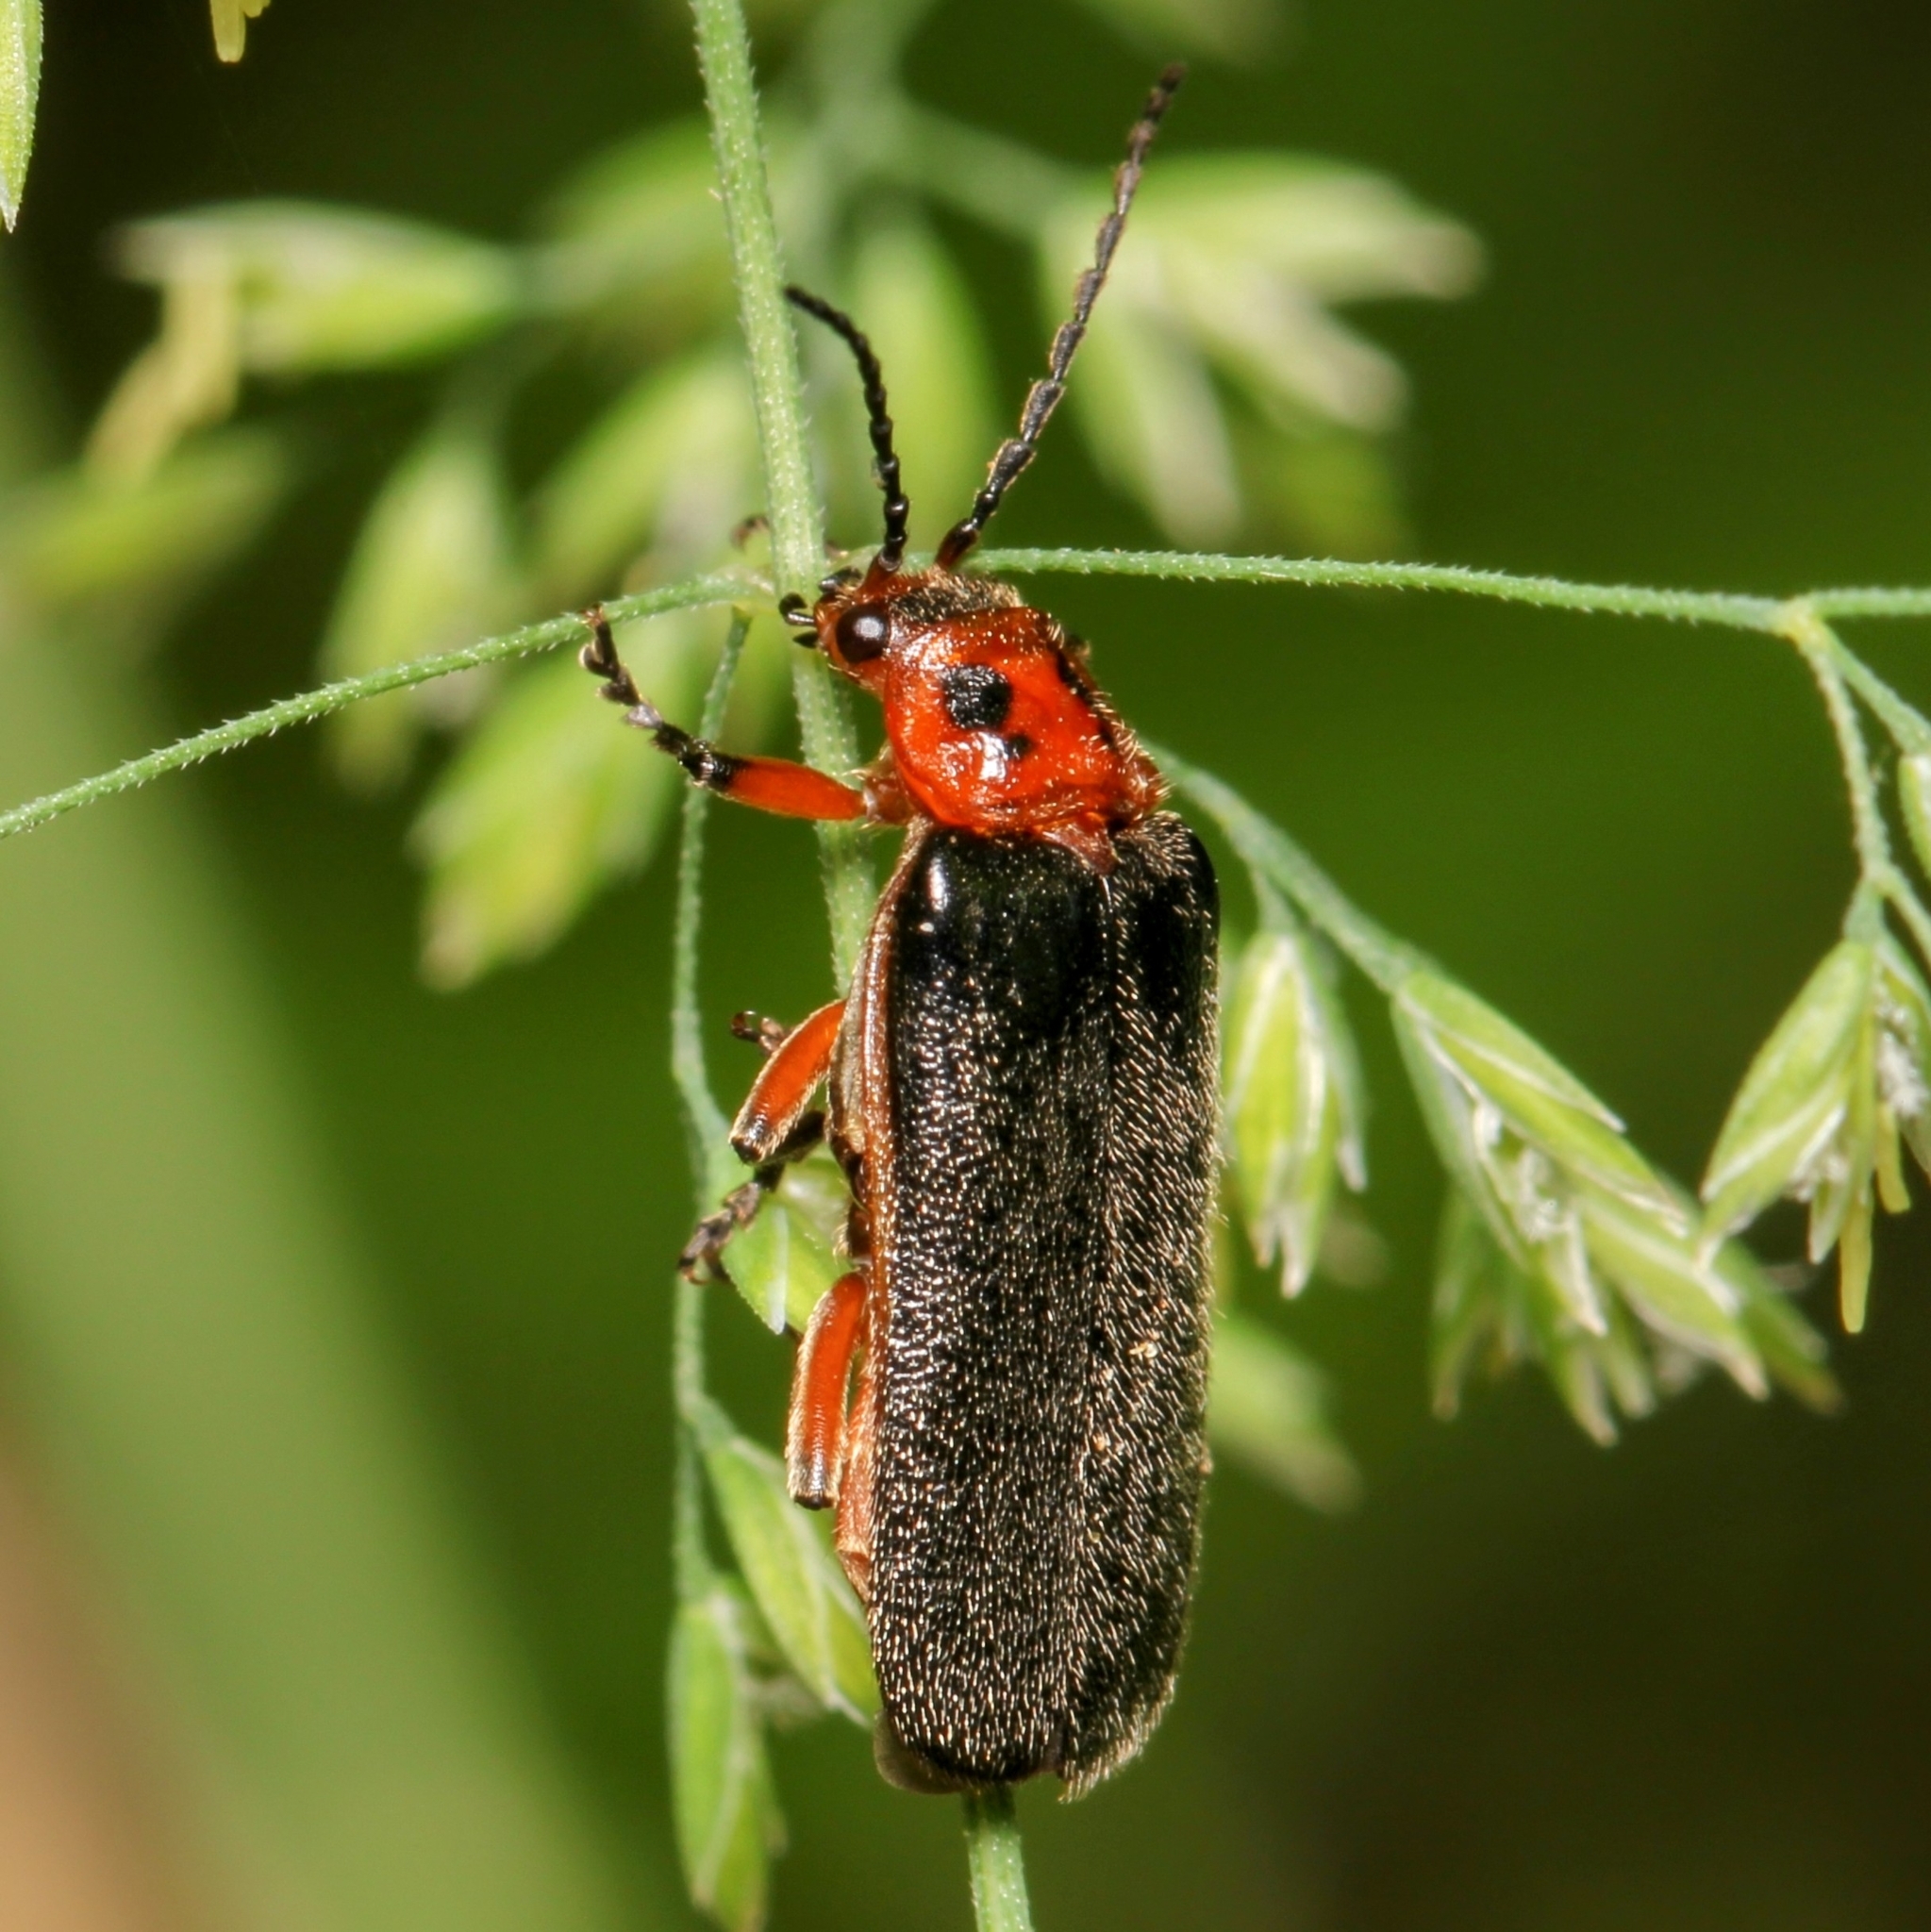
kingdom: Animalia
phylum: Arthropoda
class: Insecta
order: Coleoptera
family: Cantharidae
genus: Atalantycha
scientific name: Atalantycha bilineata
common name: Two-lined leatherwing
